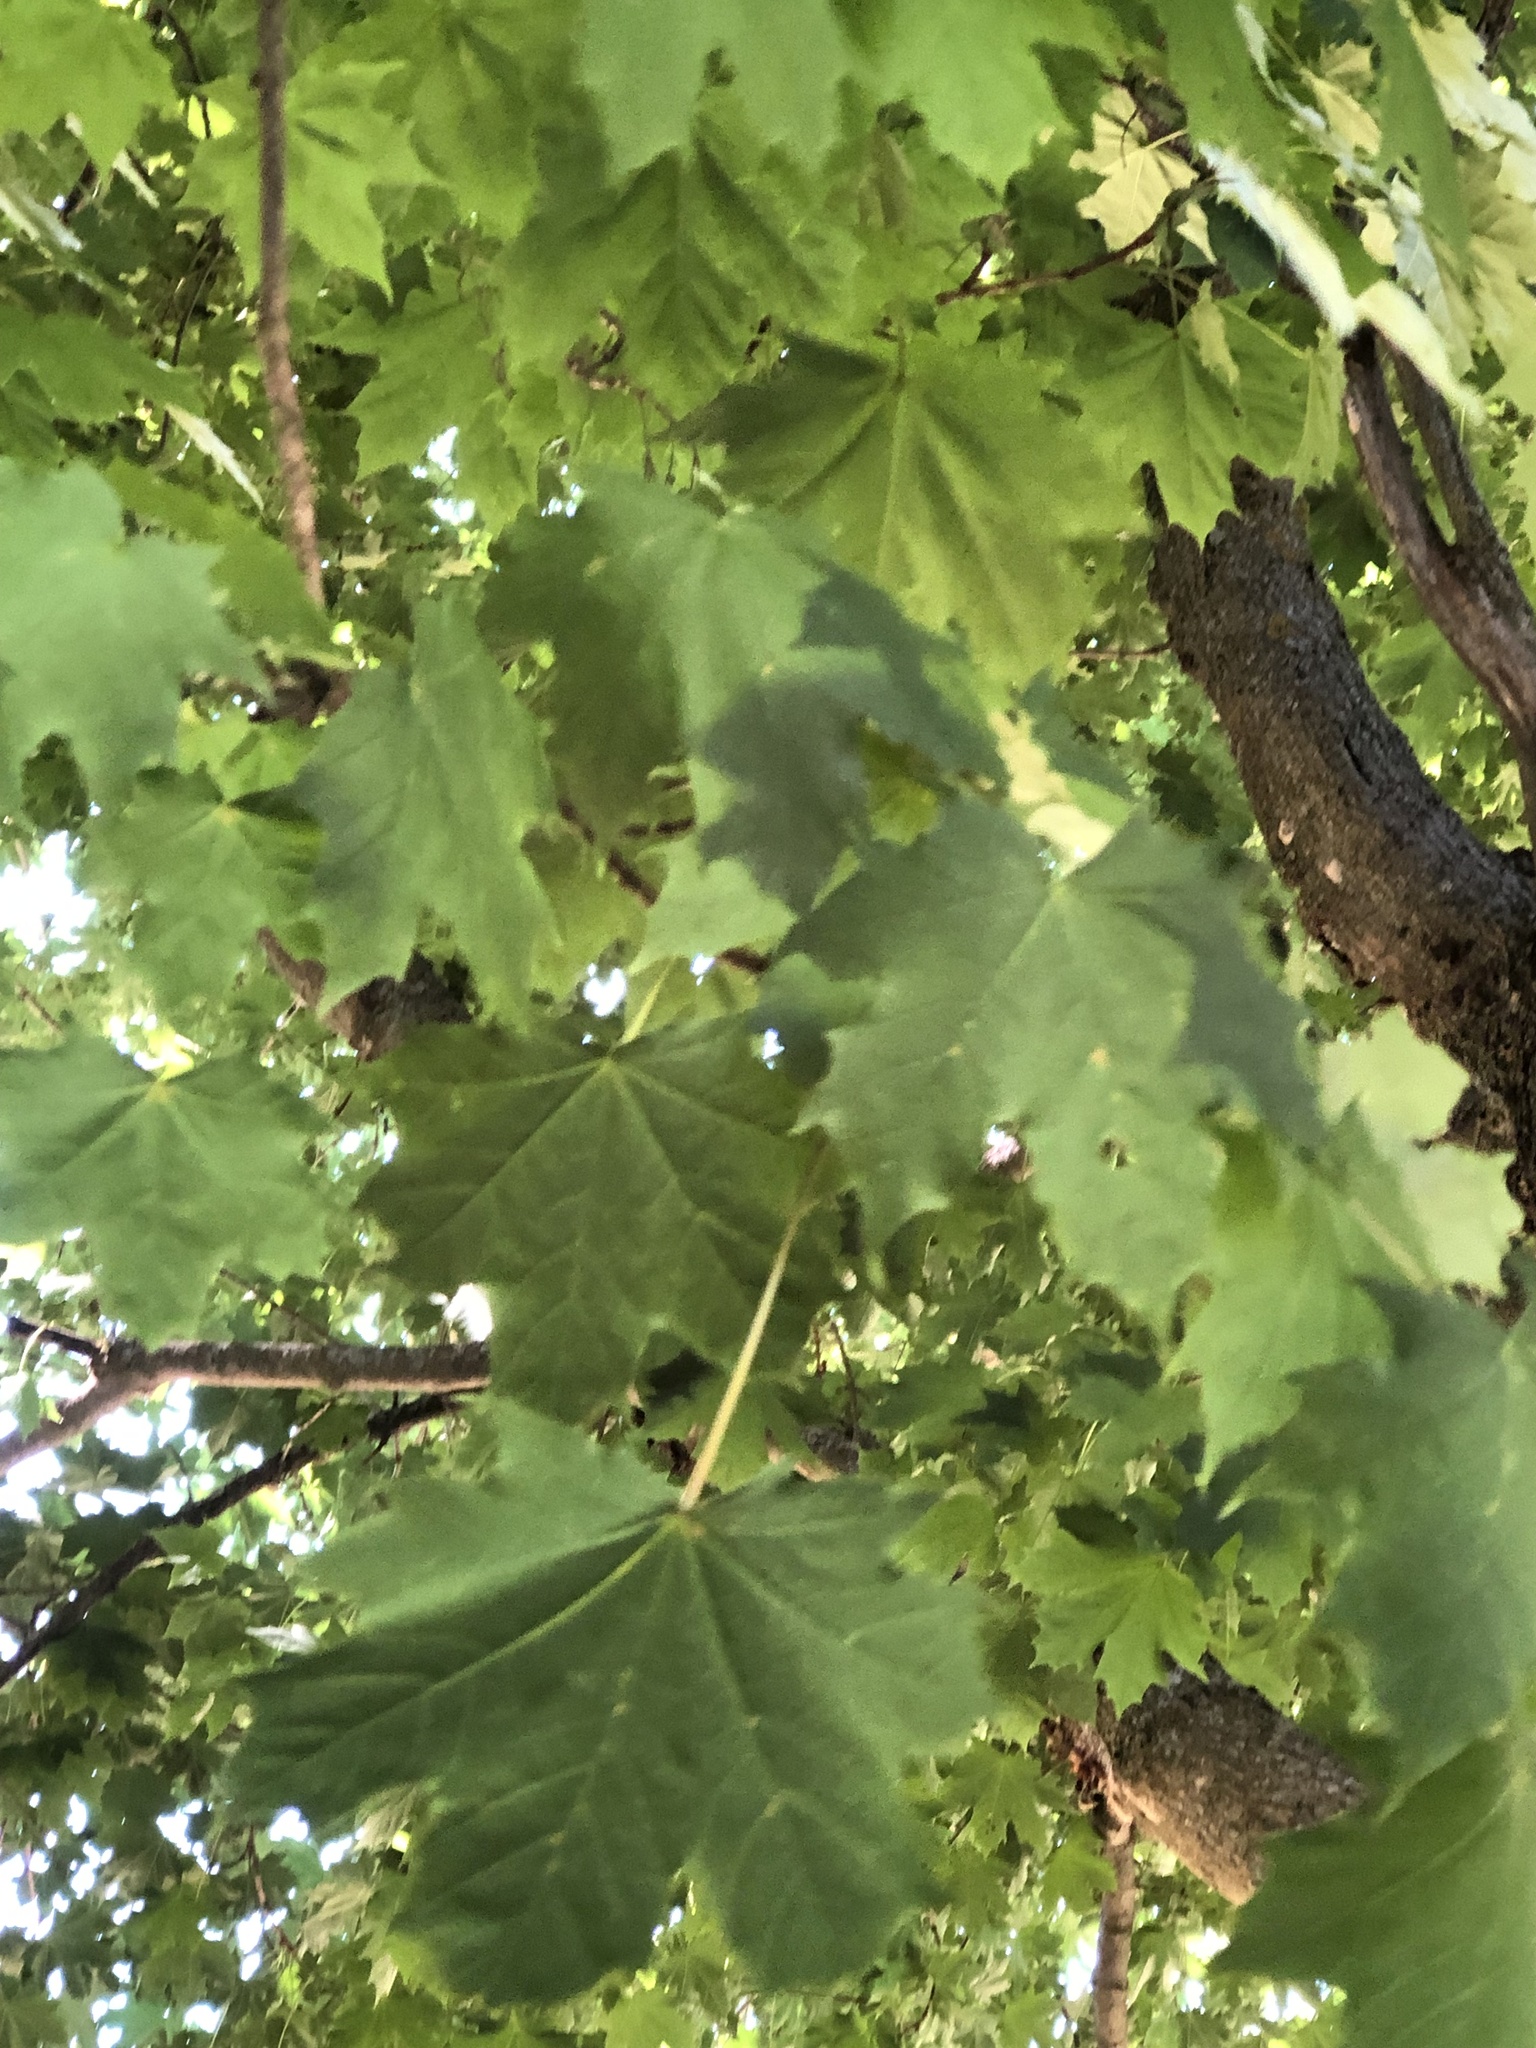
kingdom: Plantae
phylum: Tracheophyta
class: Magnoliopsida
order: Sapindales
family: Sapindaceae
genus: Acer
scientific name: Acer platanoides
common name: Norway maple
